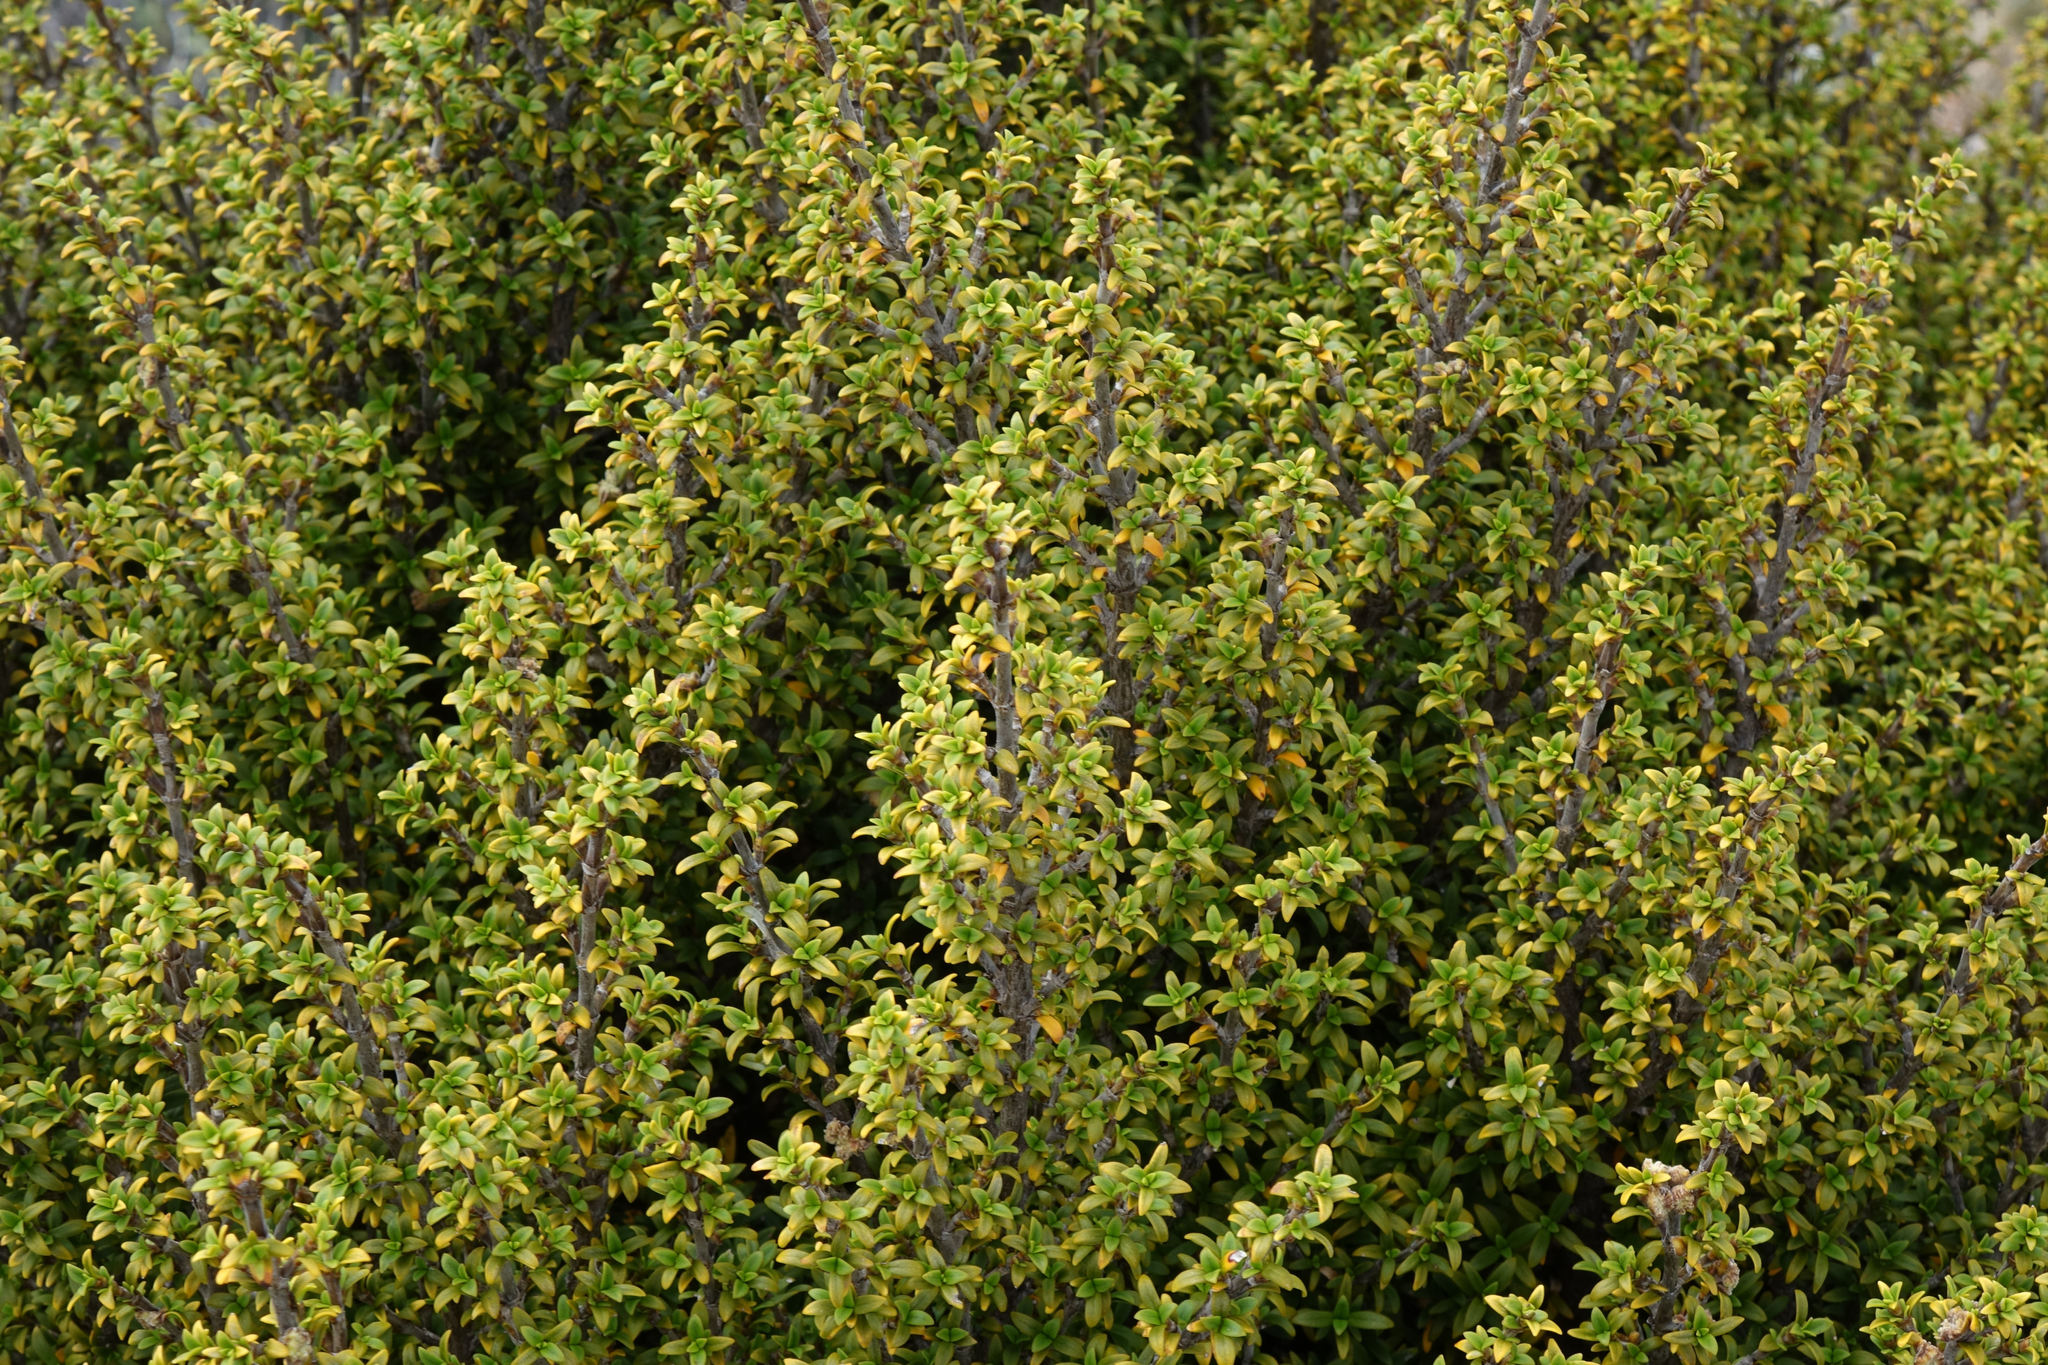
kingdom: Plantae
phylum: Tracheophyta
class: Magnoliopsida
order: Gentianales
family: Rubiaceae
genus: Coprosma
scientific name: Coprosma pseudocuneata
